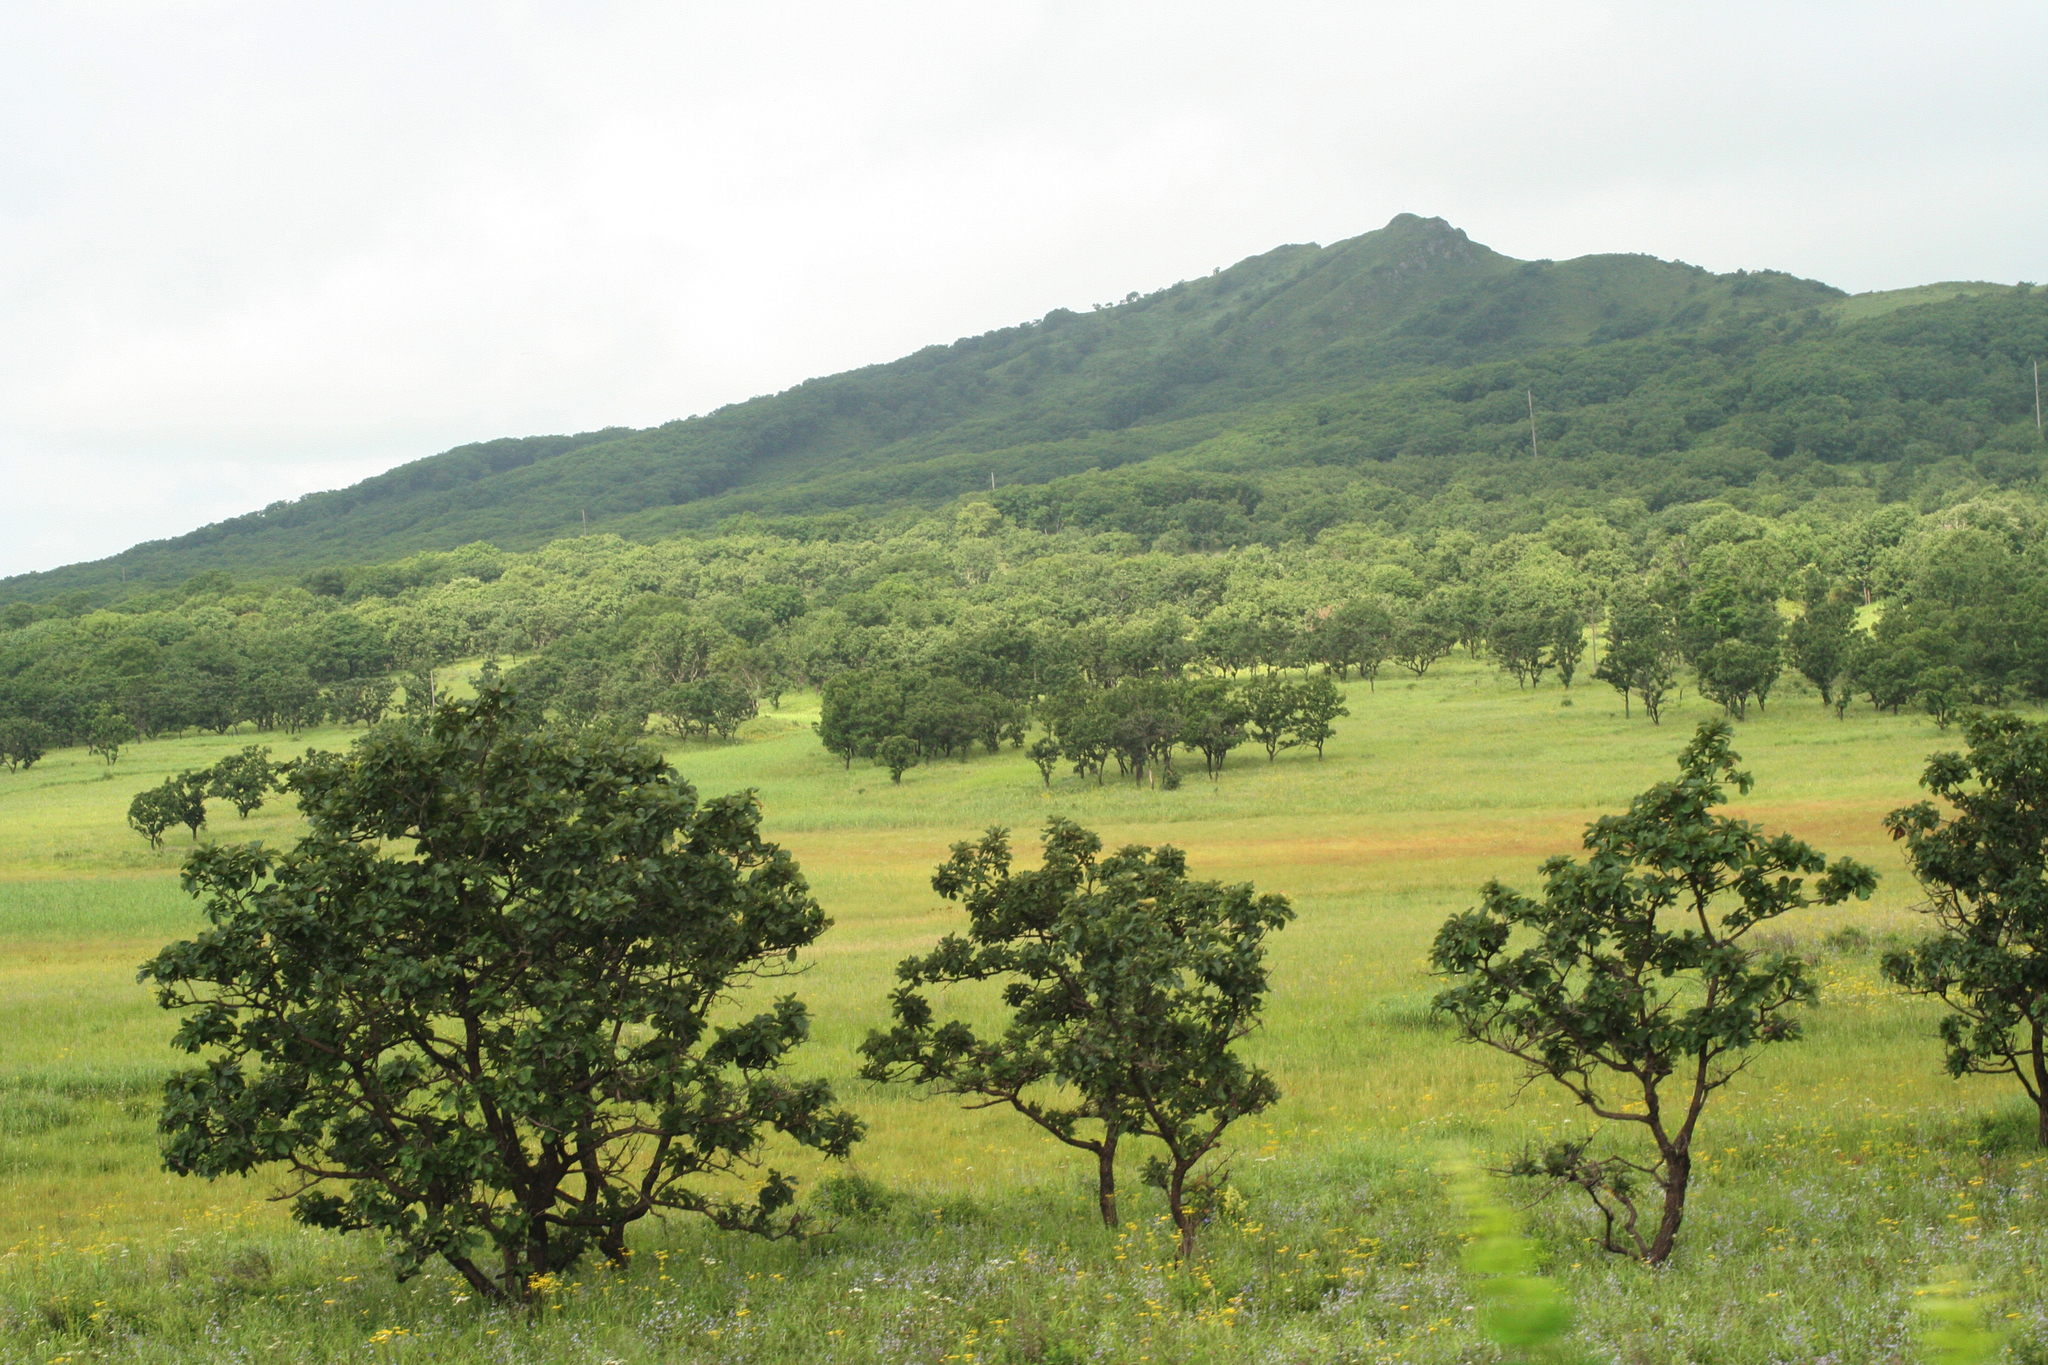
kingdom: Plantae
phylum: Tracheophyta
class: Magnoliopsida
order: Fagales
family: Fagaceae
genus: Quercus
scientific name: Quercus dentata
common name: Daimyo oak
